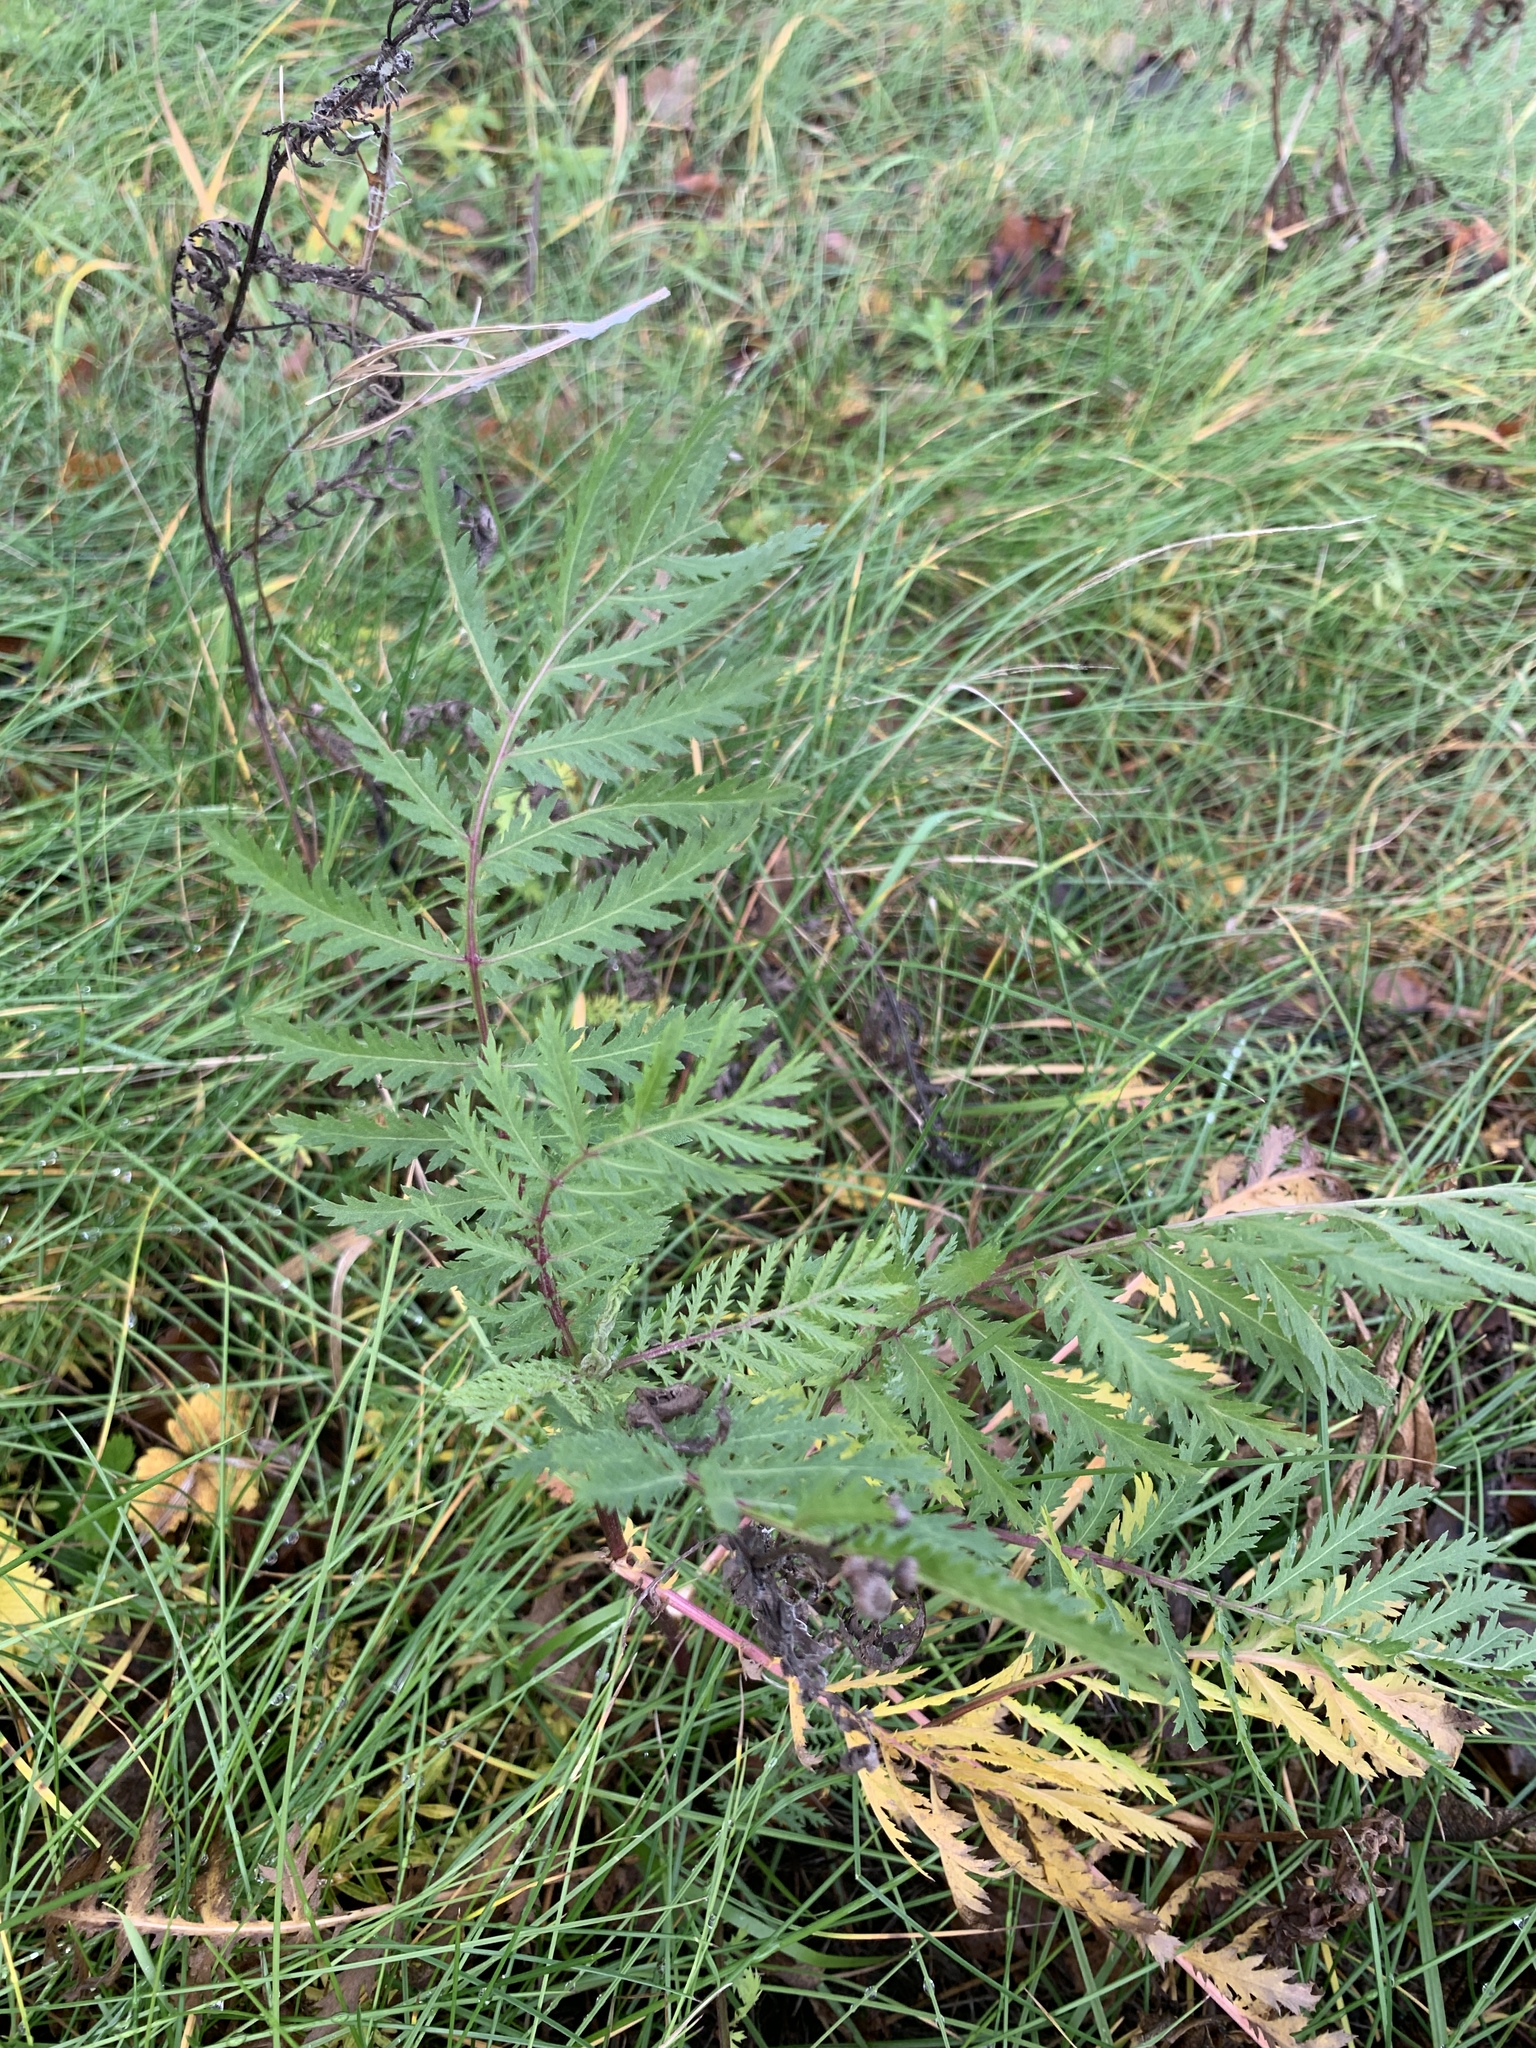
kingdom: Plantae
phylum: Tracheophyta
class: Magnoliopsida
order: Asterales
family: Asteraceae
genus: Tanacetum
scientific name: Tanacetum vulgare
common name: Common tansy
